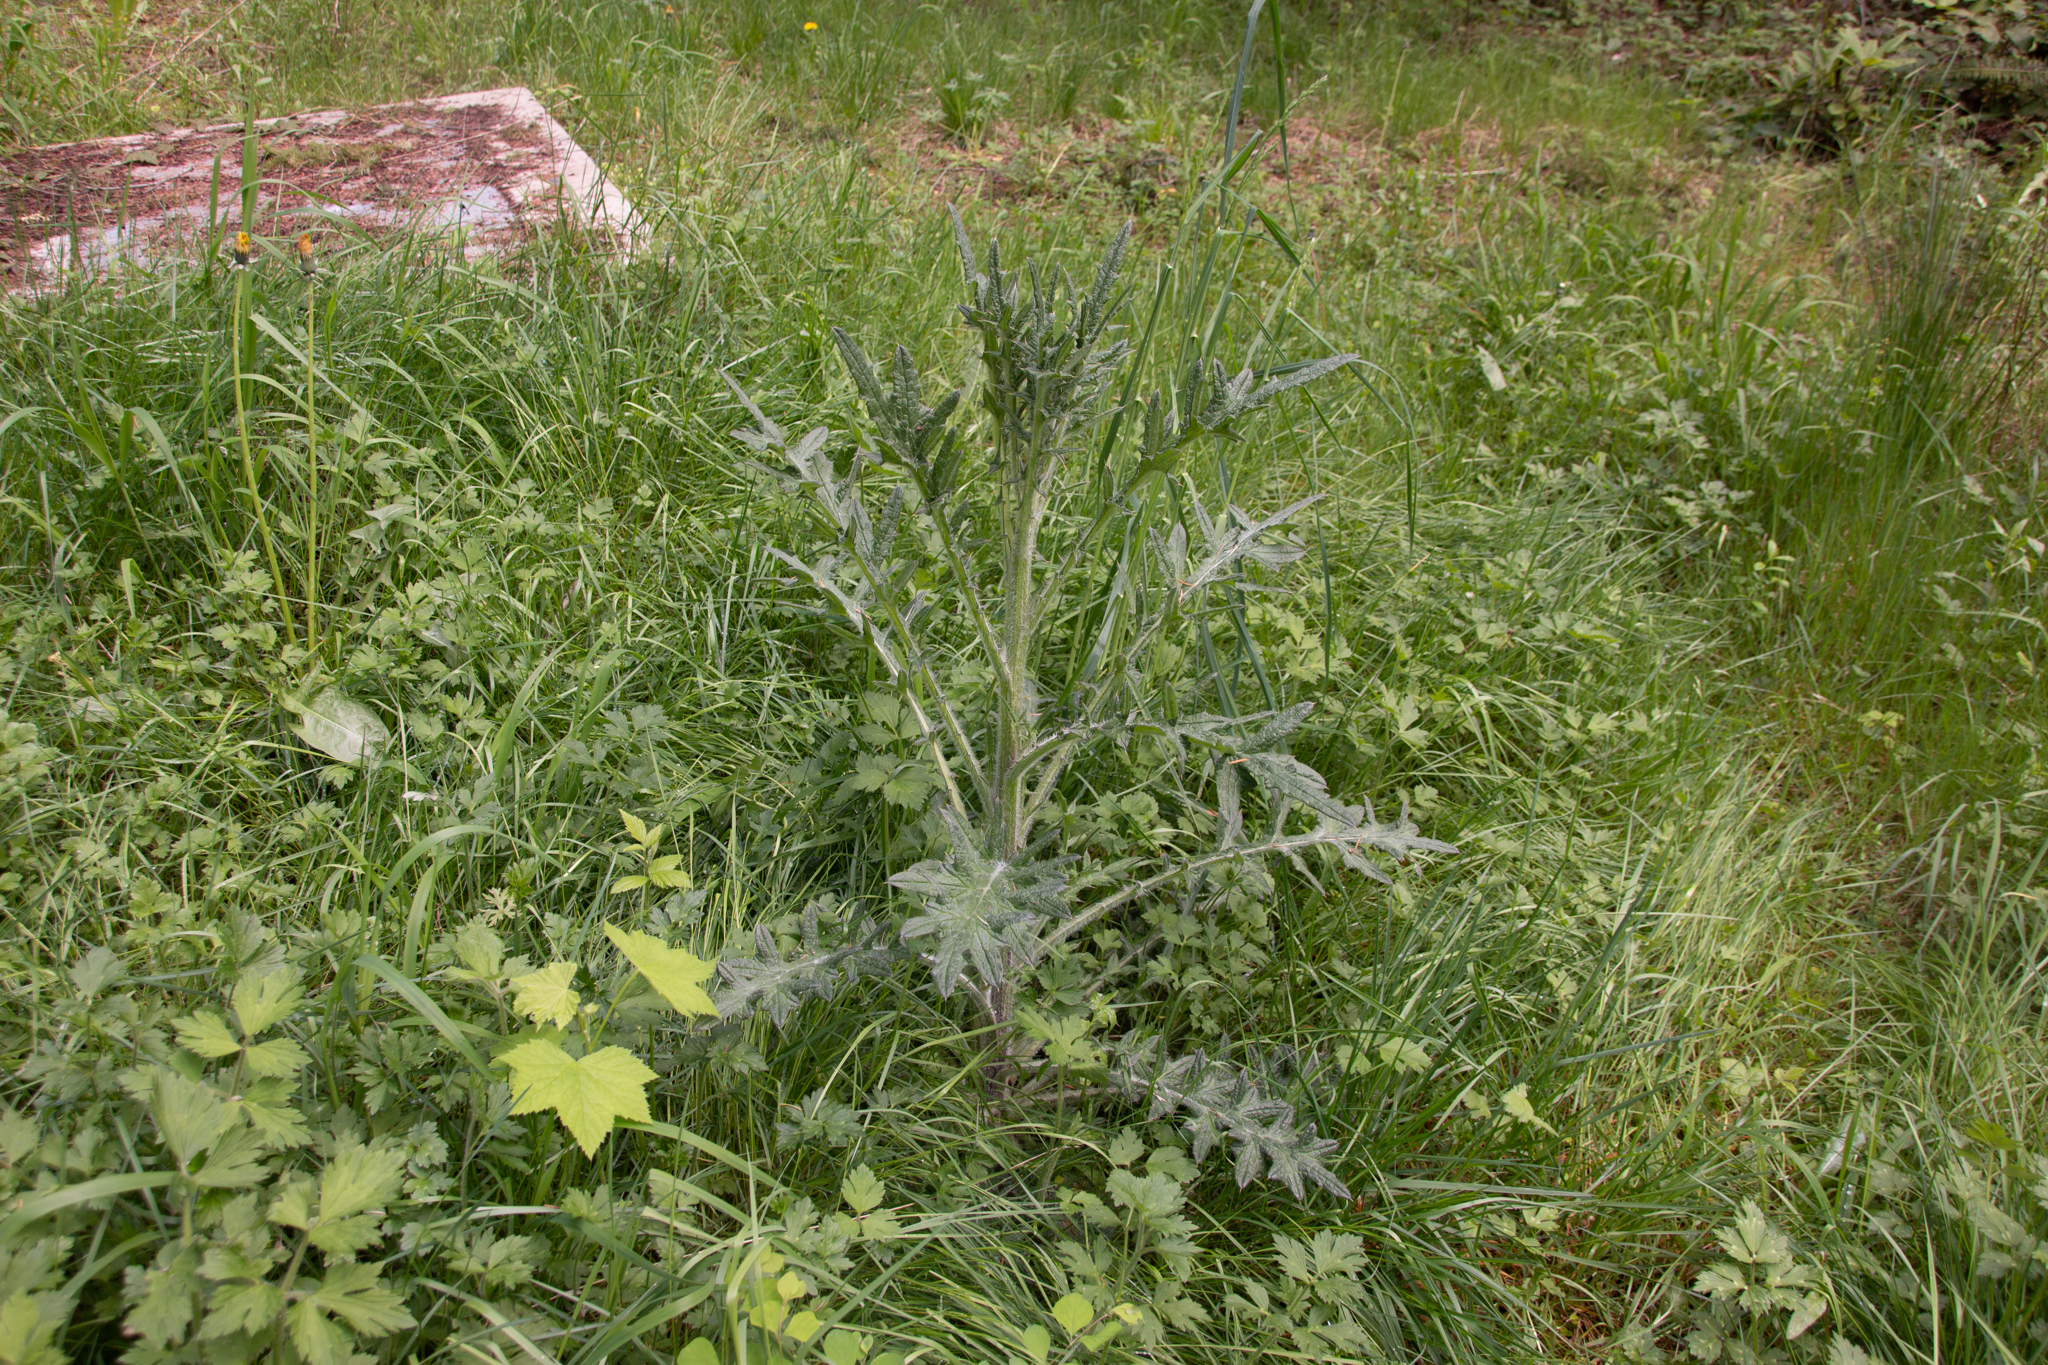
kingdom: Plantae
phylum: Tracheophyta
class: Magnoliopsida
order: Asterales
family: Asteraceae
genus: Cirsium
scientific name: Cirsium vulgare
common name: Bull thistle
